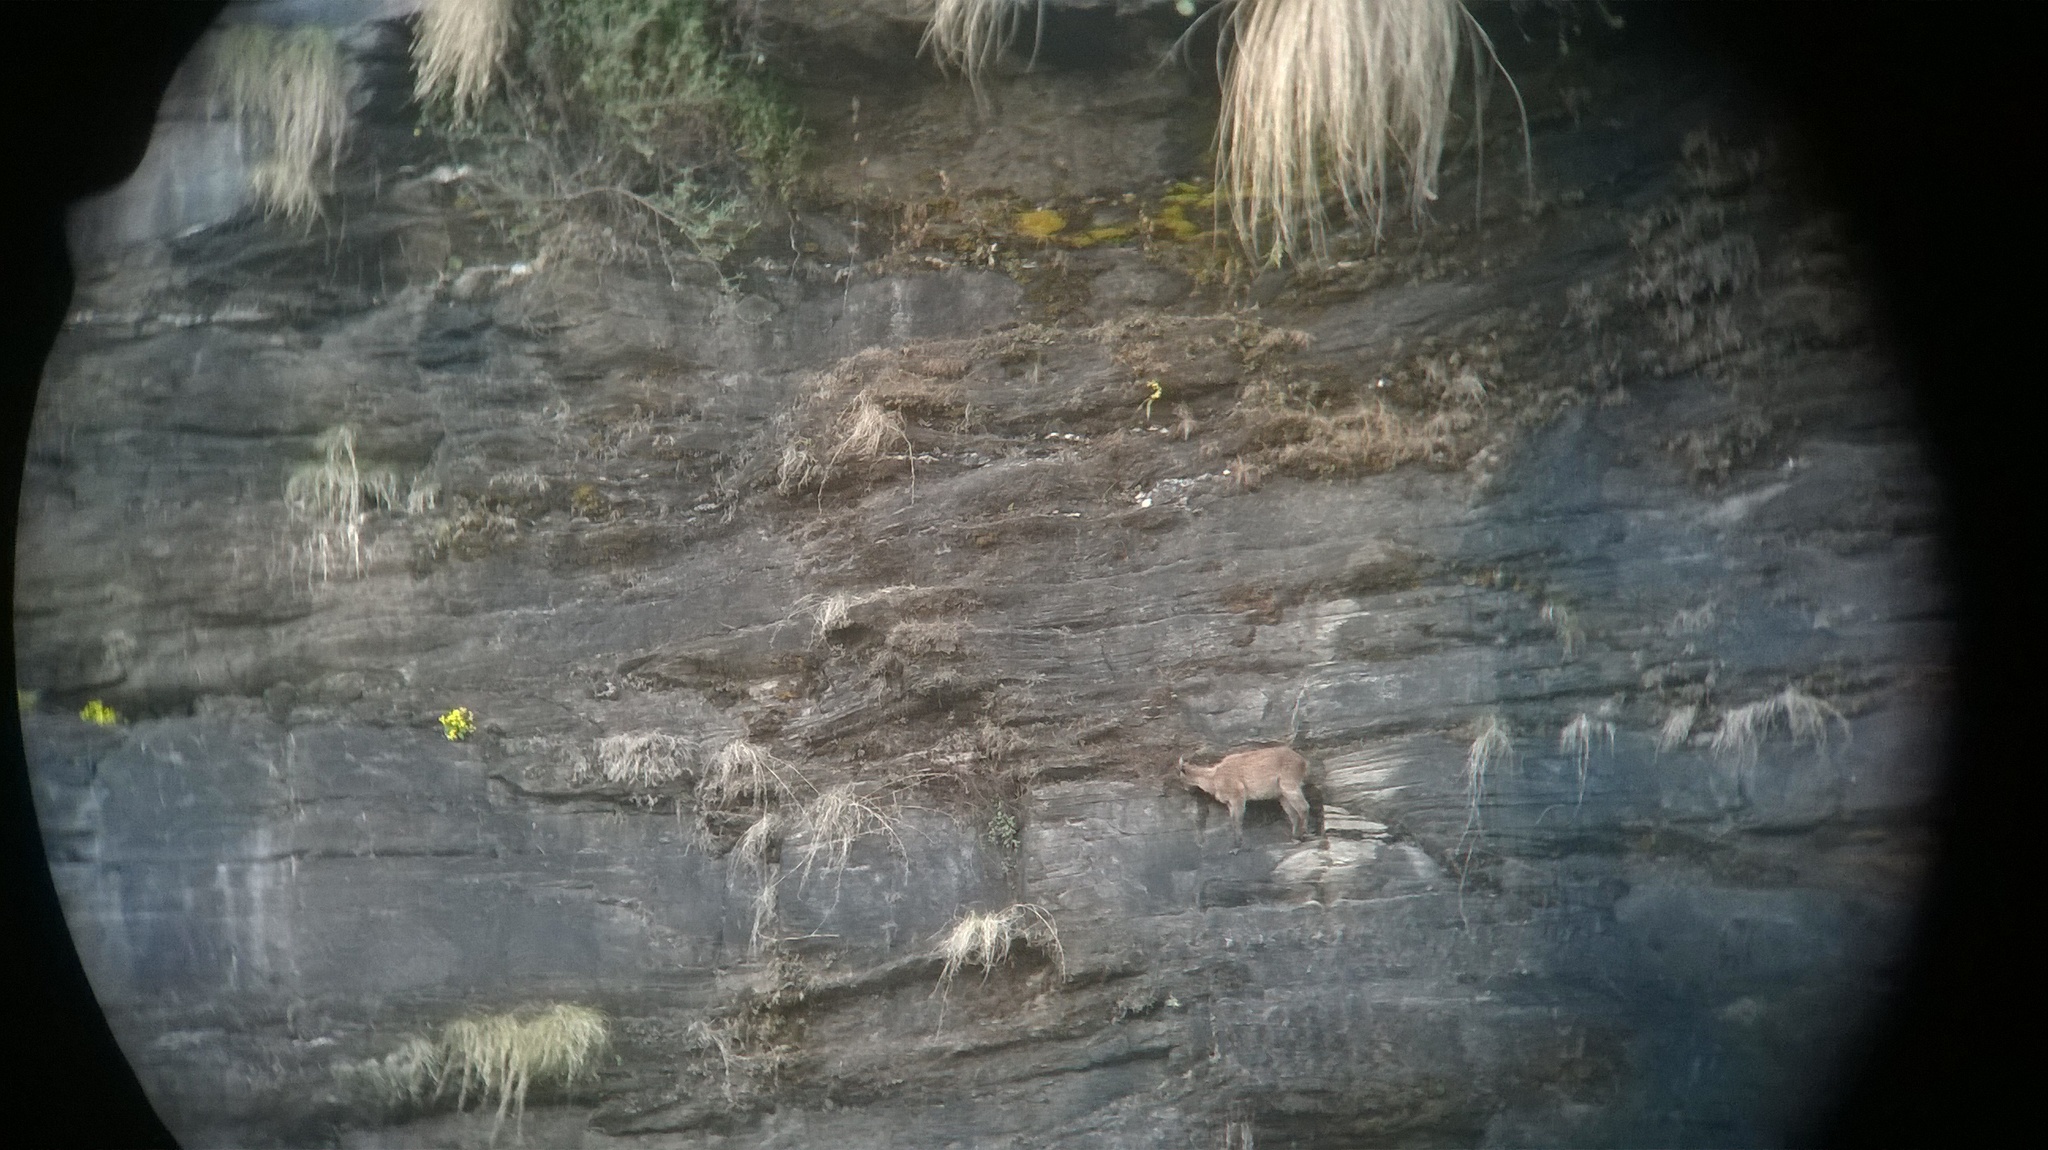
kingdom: Animalia
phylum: Chordata
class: Mammalia
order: Artiodactyla
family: Bovidae
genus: Hemitragus
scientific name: Hemitragus jemlahicus
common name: Himalayan tahr
